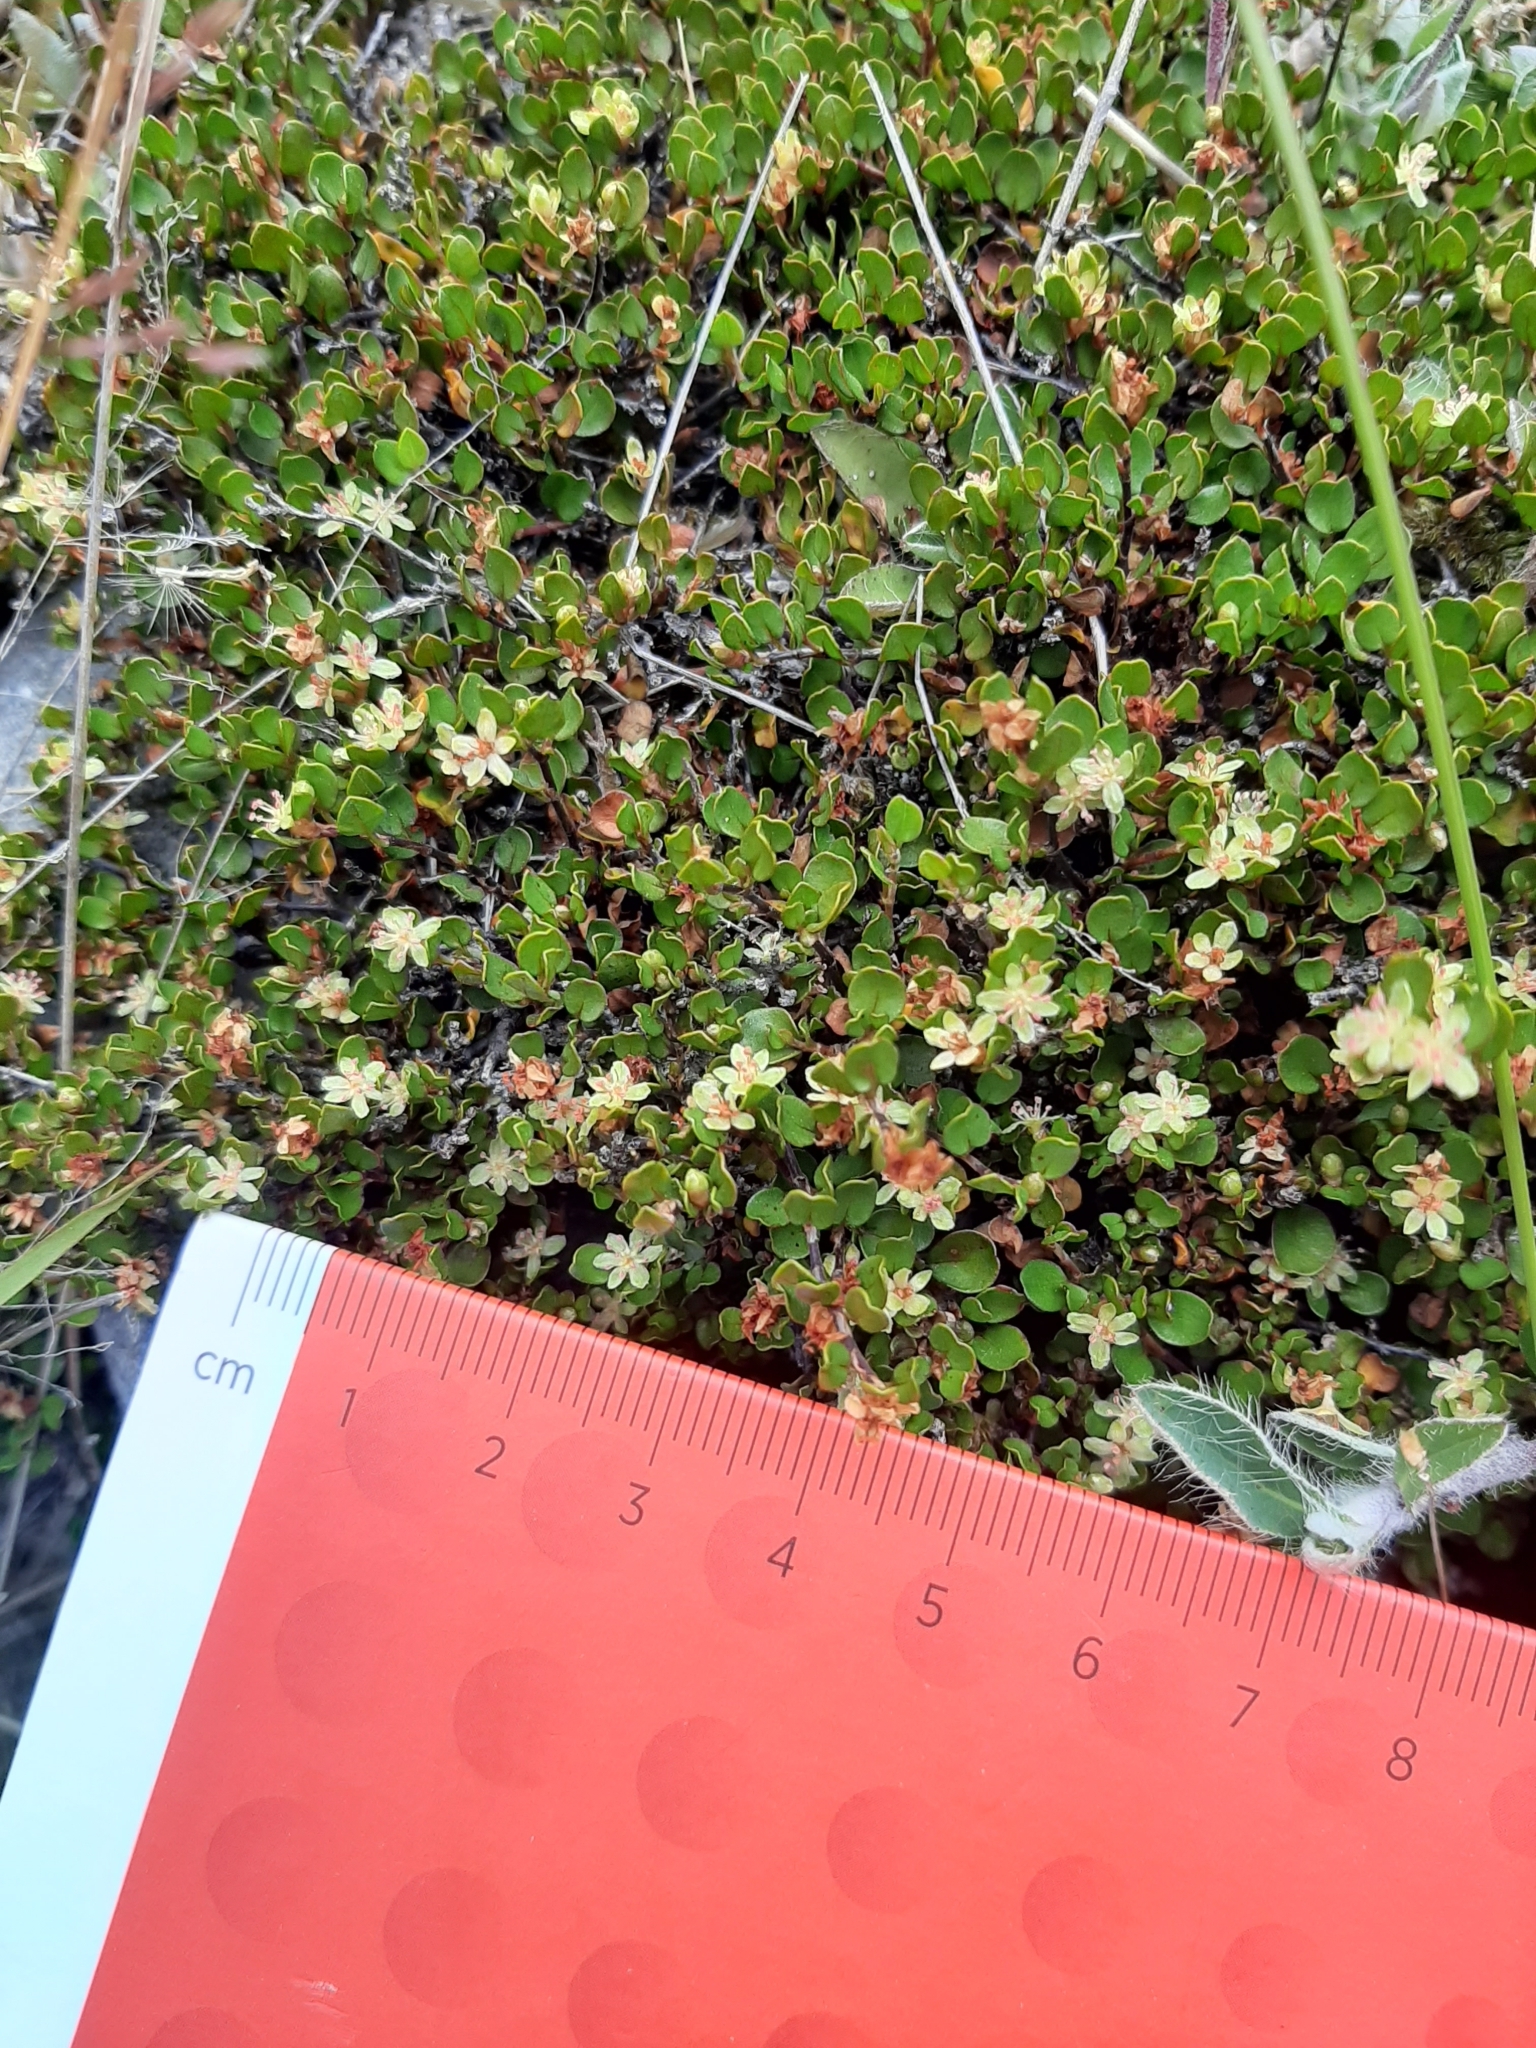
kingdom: Plantae
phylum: Tracheophyta
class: Magnoliopsida
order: Caryophyllales
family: Polygonaceae
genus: Muehlenbeckia
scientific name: Muehlenbeckia axillaris
